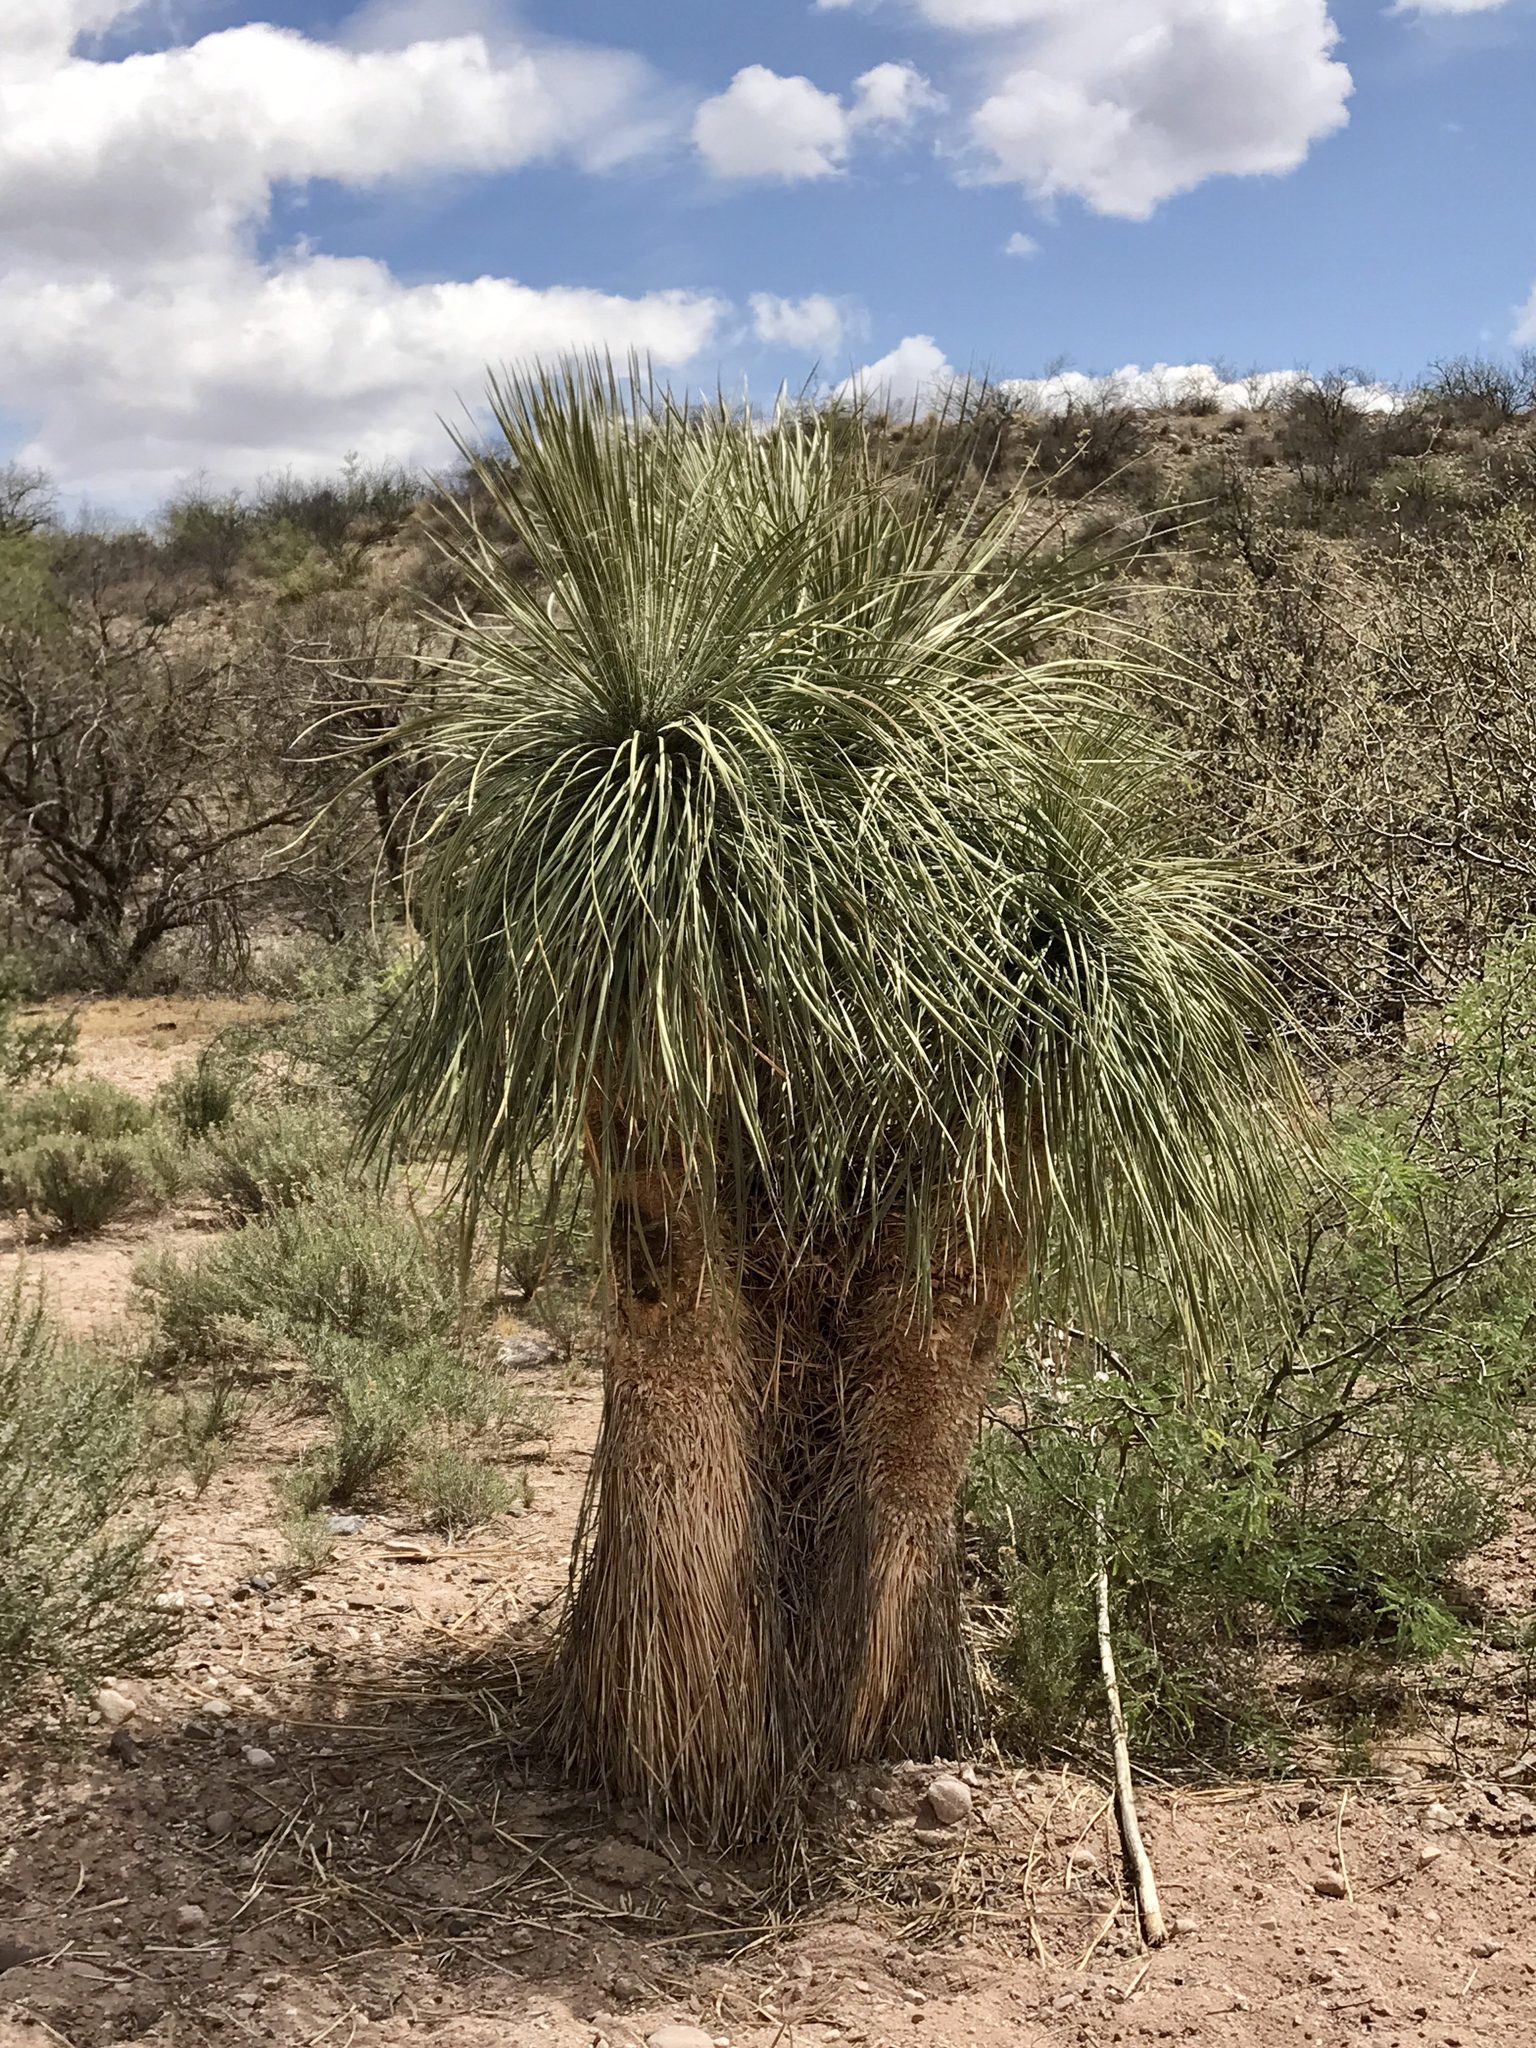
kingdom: Plantae
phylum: Tracheophyta
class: Liliopsida
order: Asparagales
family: Asparagaceae
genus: Yucca
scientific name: Yucca elata
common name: Palmella
